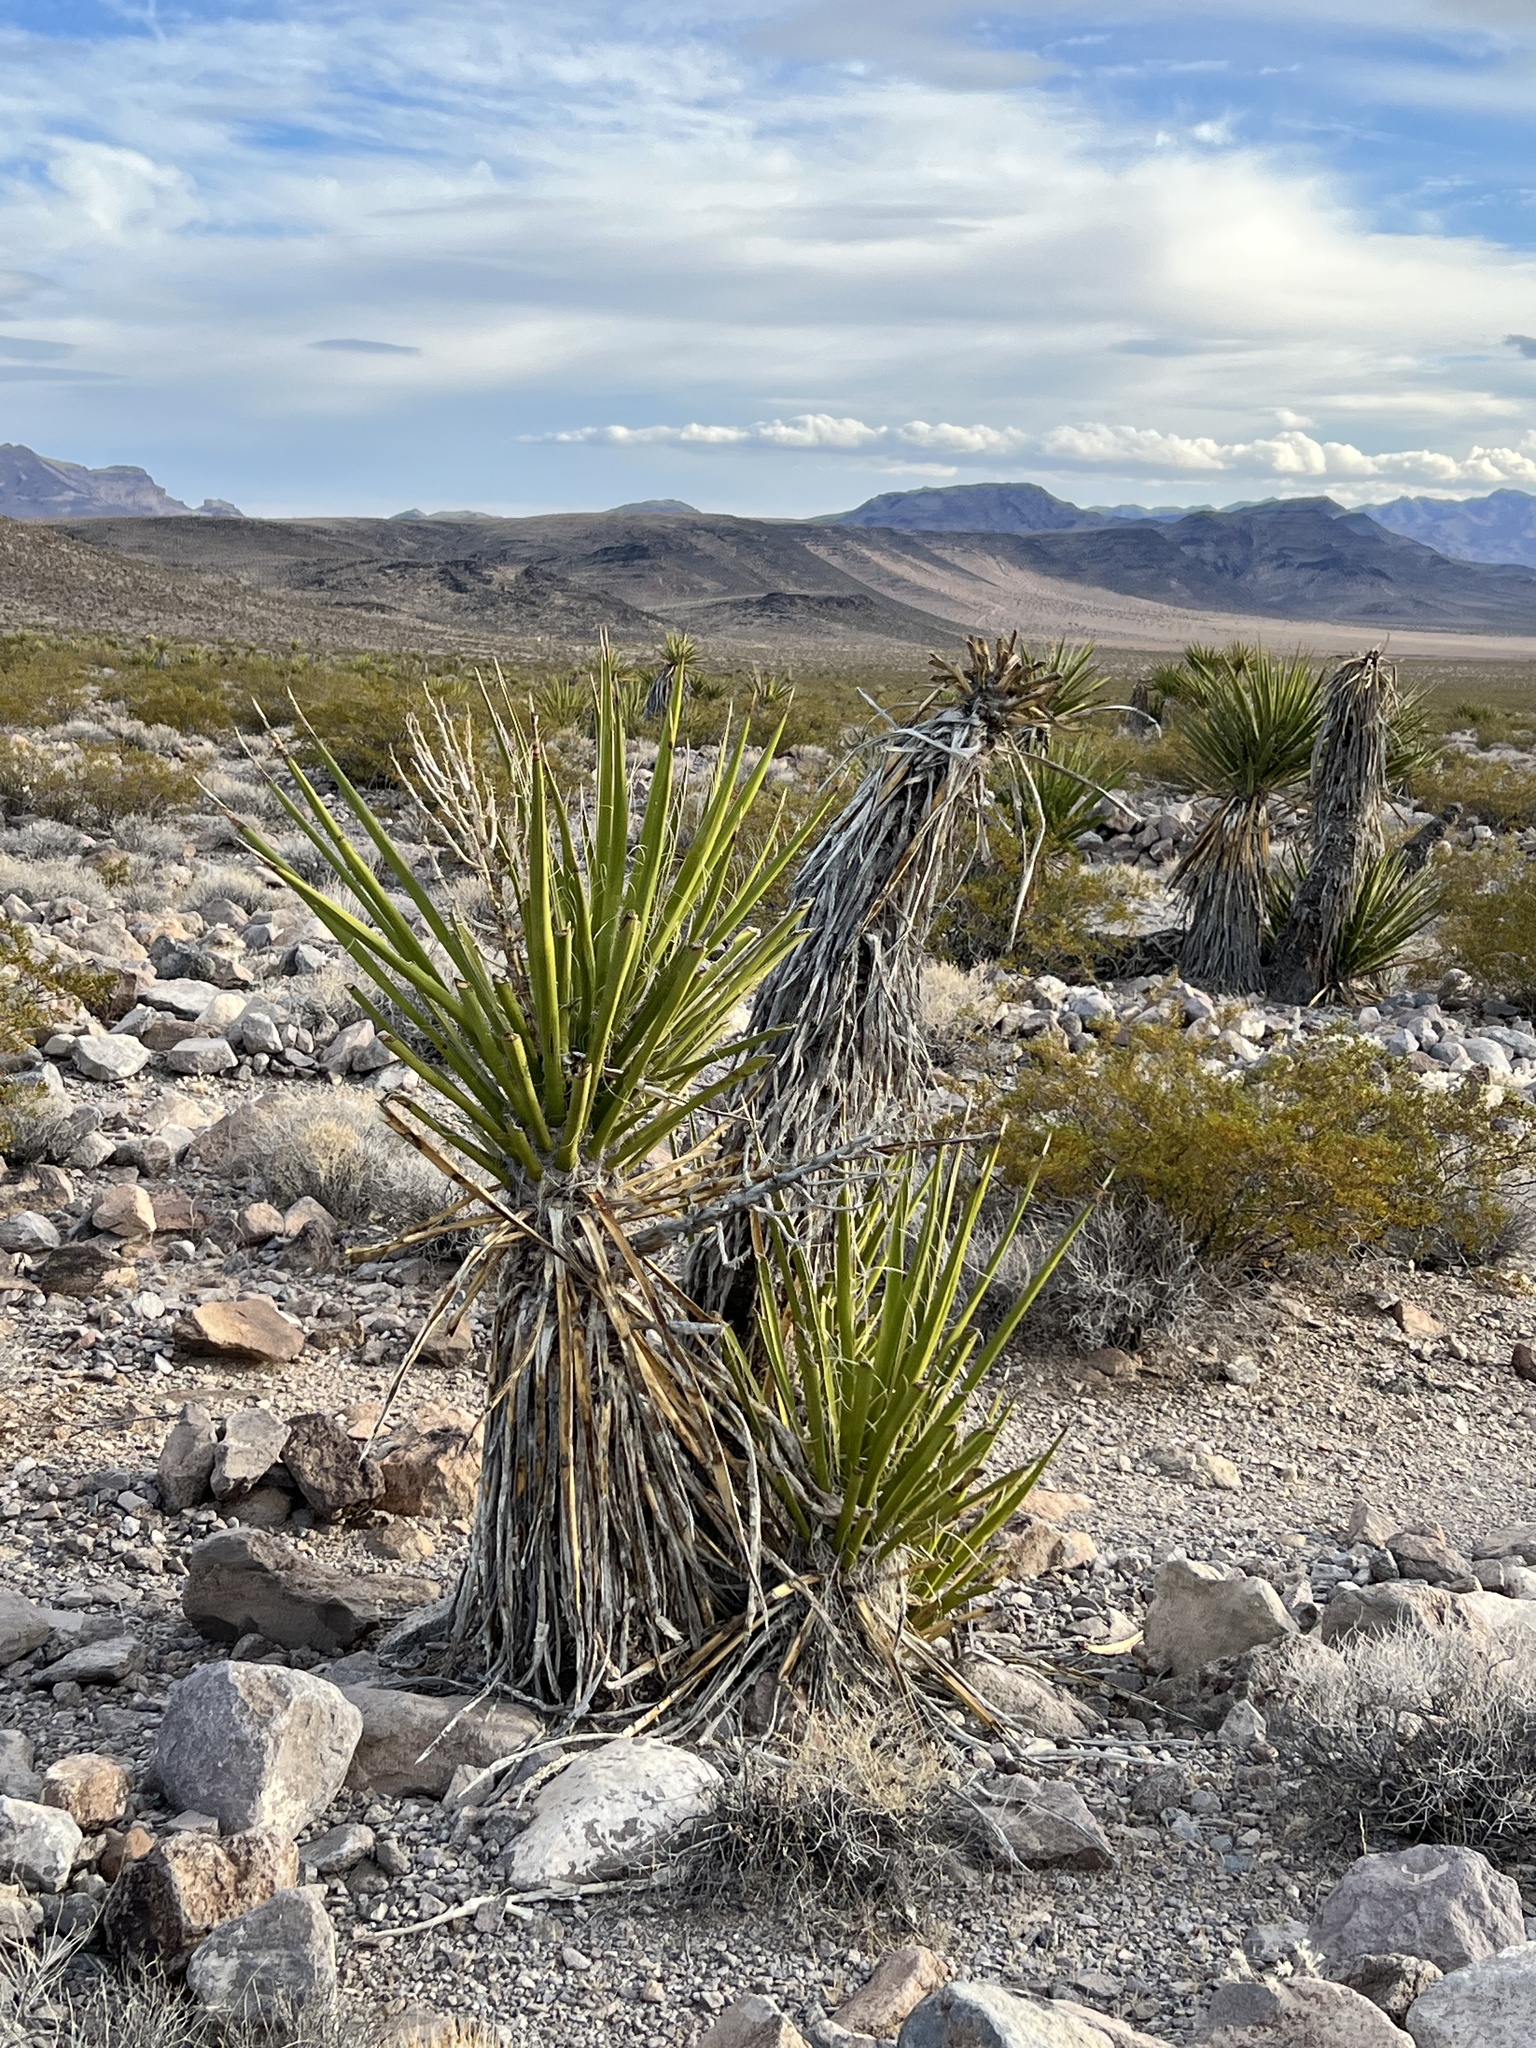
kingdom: Plantae
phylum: Tracheophyta
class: Liliopsida
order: Asparagales
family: Asparagaceae
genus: Yucca
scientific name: Yucca schidigera
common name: Mojave yucca
